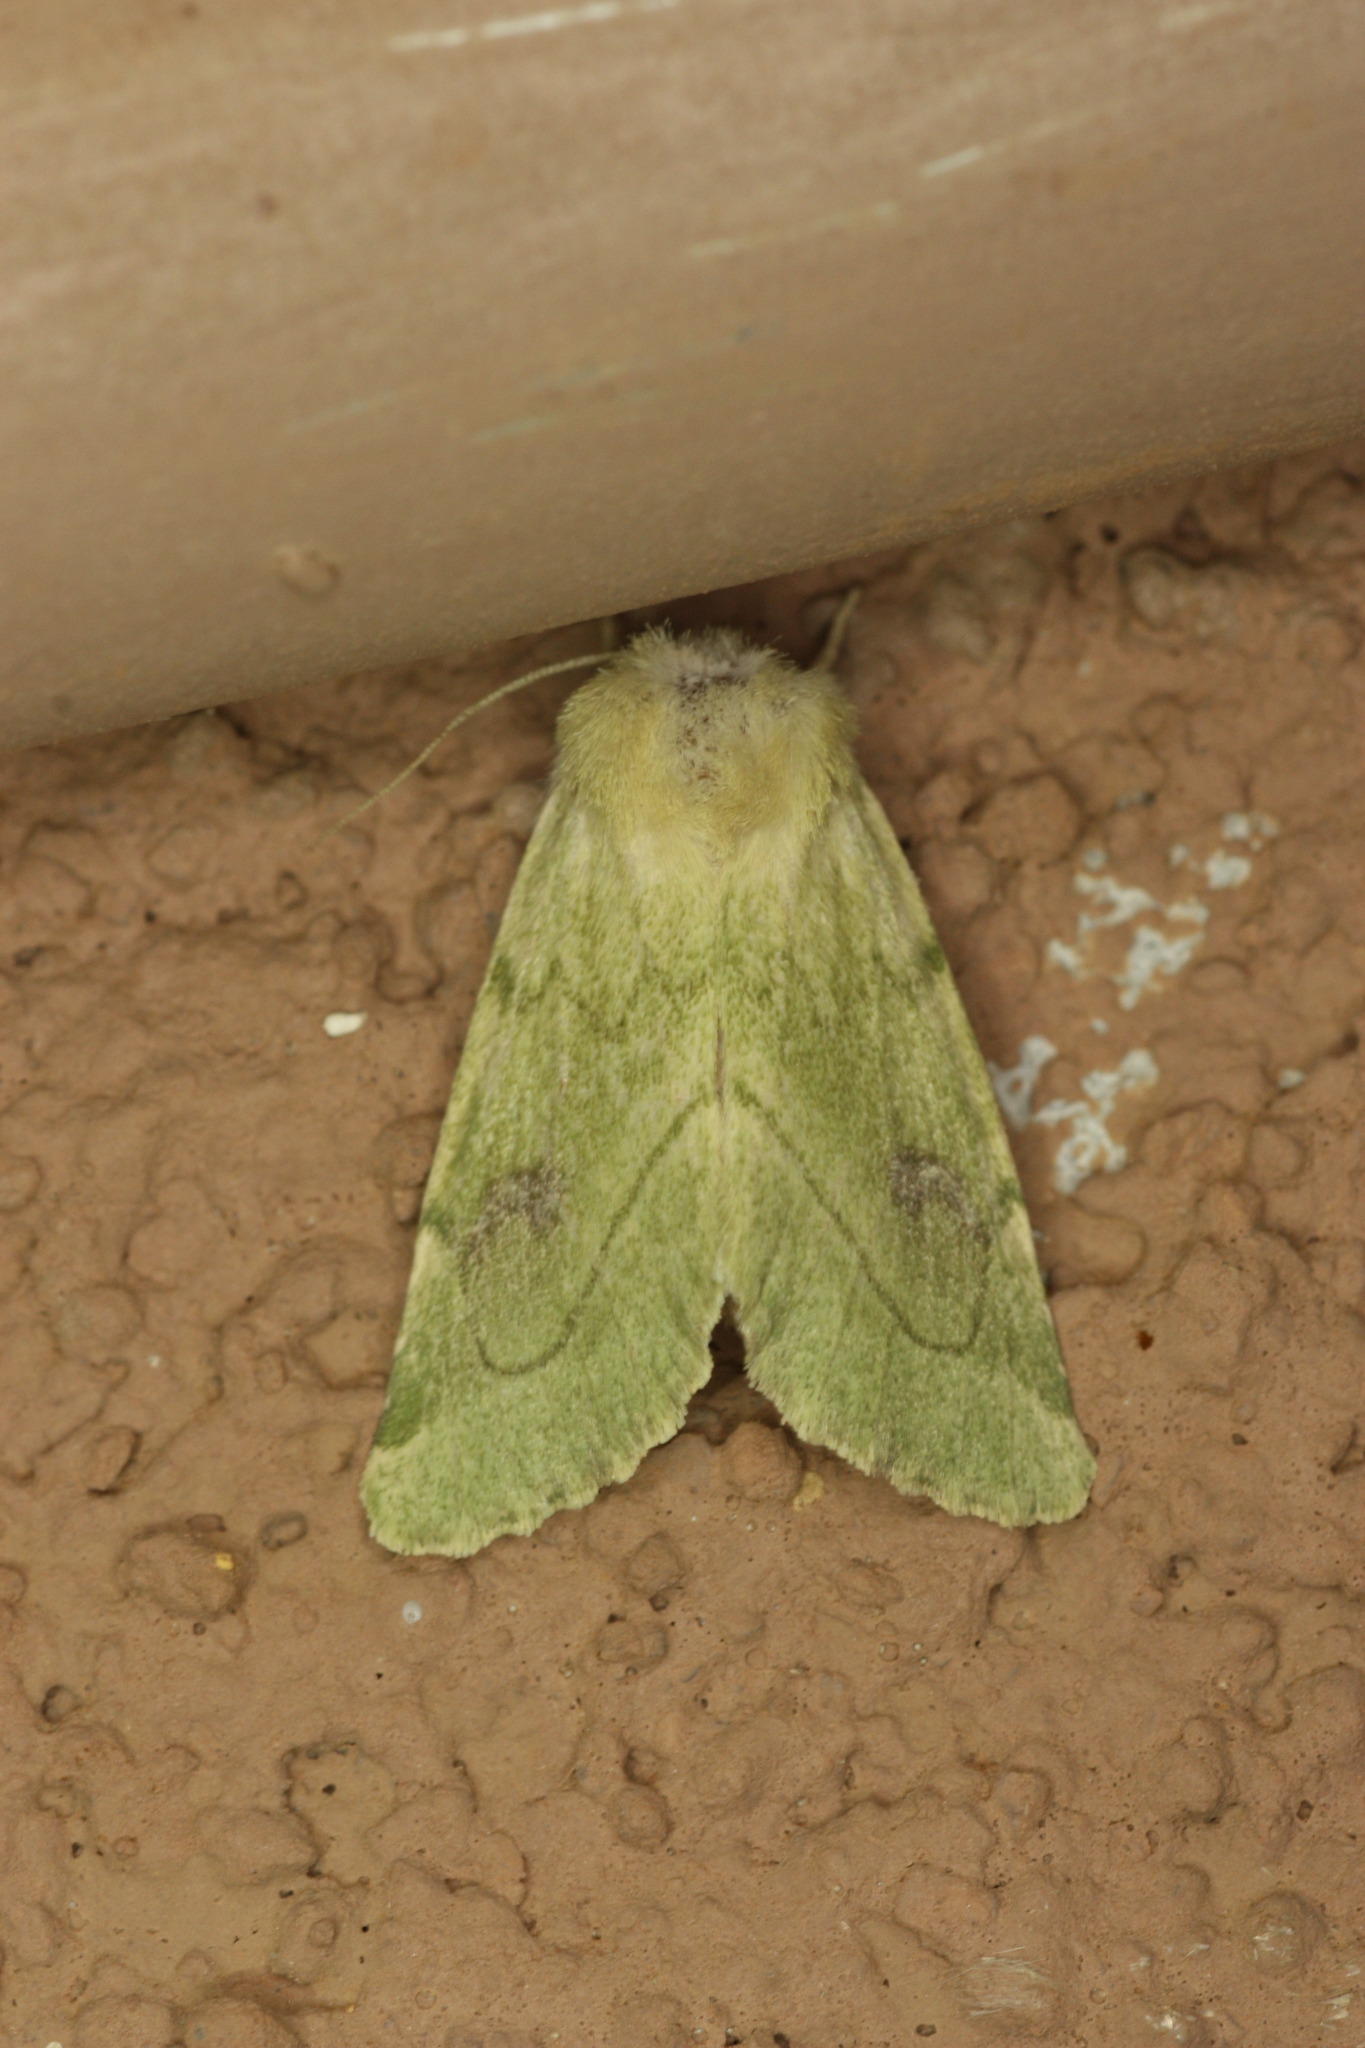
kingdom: Animalia
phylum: Arthropoda
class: Insecta
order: Lepidoptera
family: Noctuidae
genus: Zotheca
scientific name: Zotheca tranquilla
